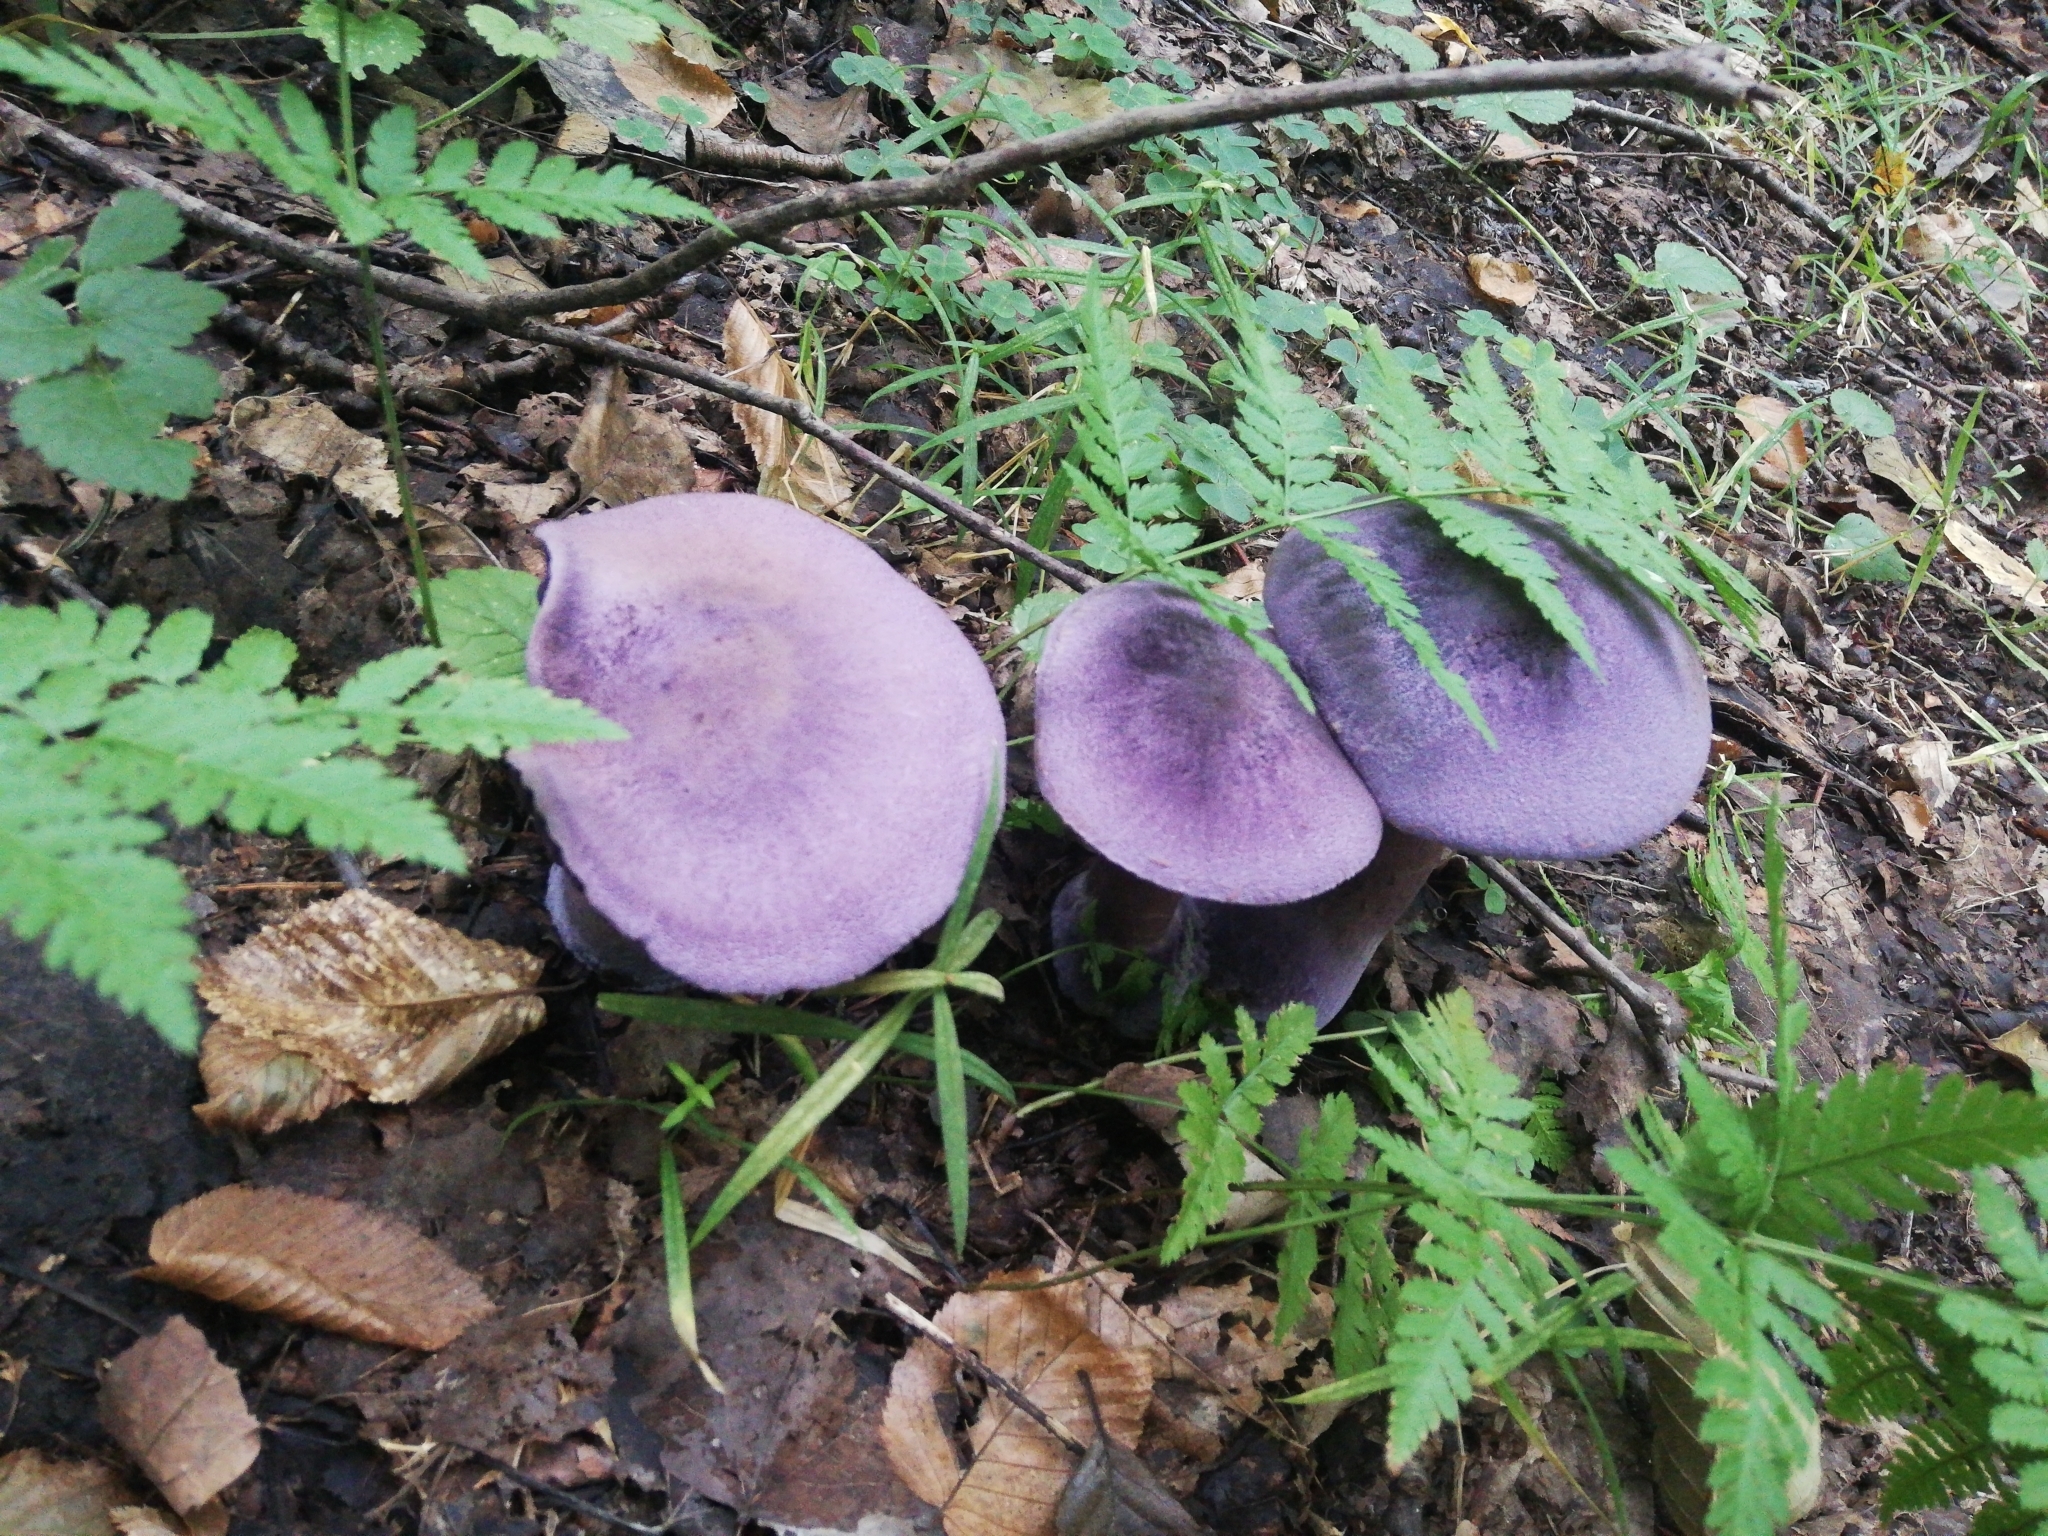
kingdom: Fungi
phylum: Basidiomycota
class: Agaricomycetes
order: Agaricales
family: Cortinariaceae
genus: Cortinarius
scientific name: Cortinarius violaceus
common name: Violet webcap
